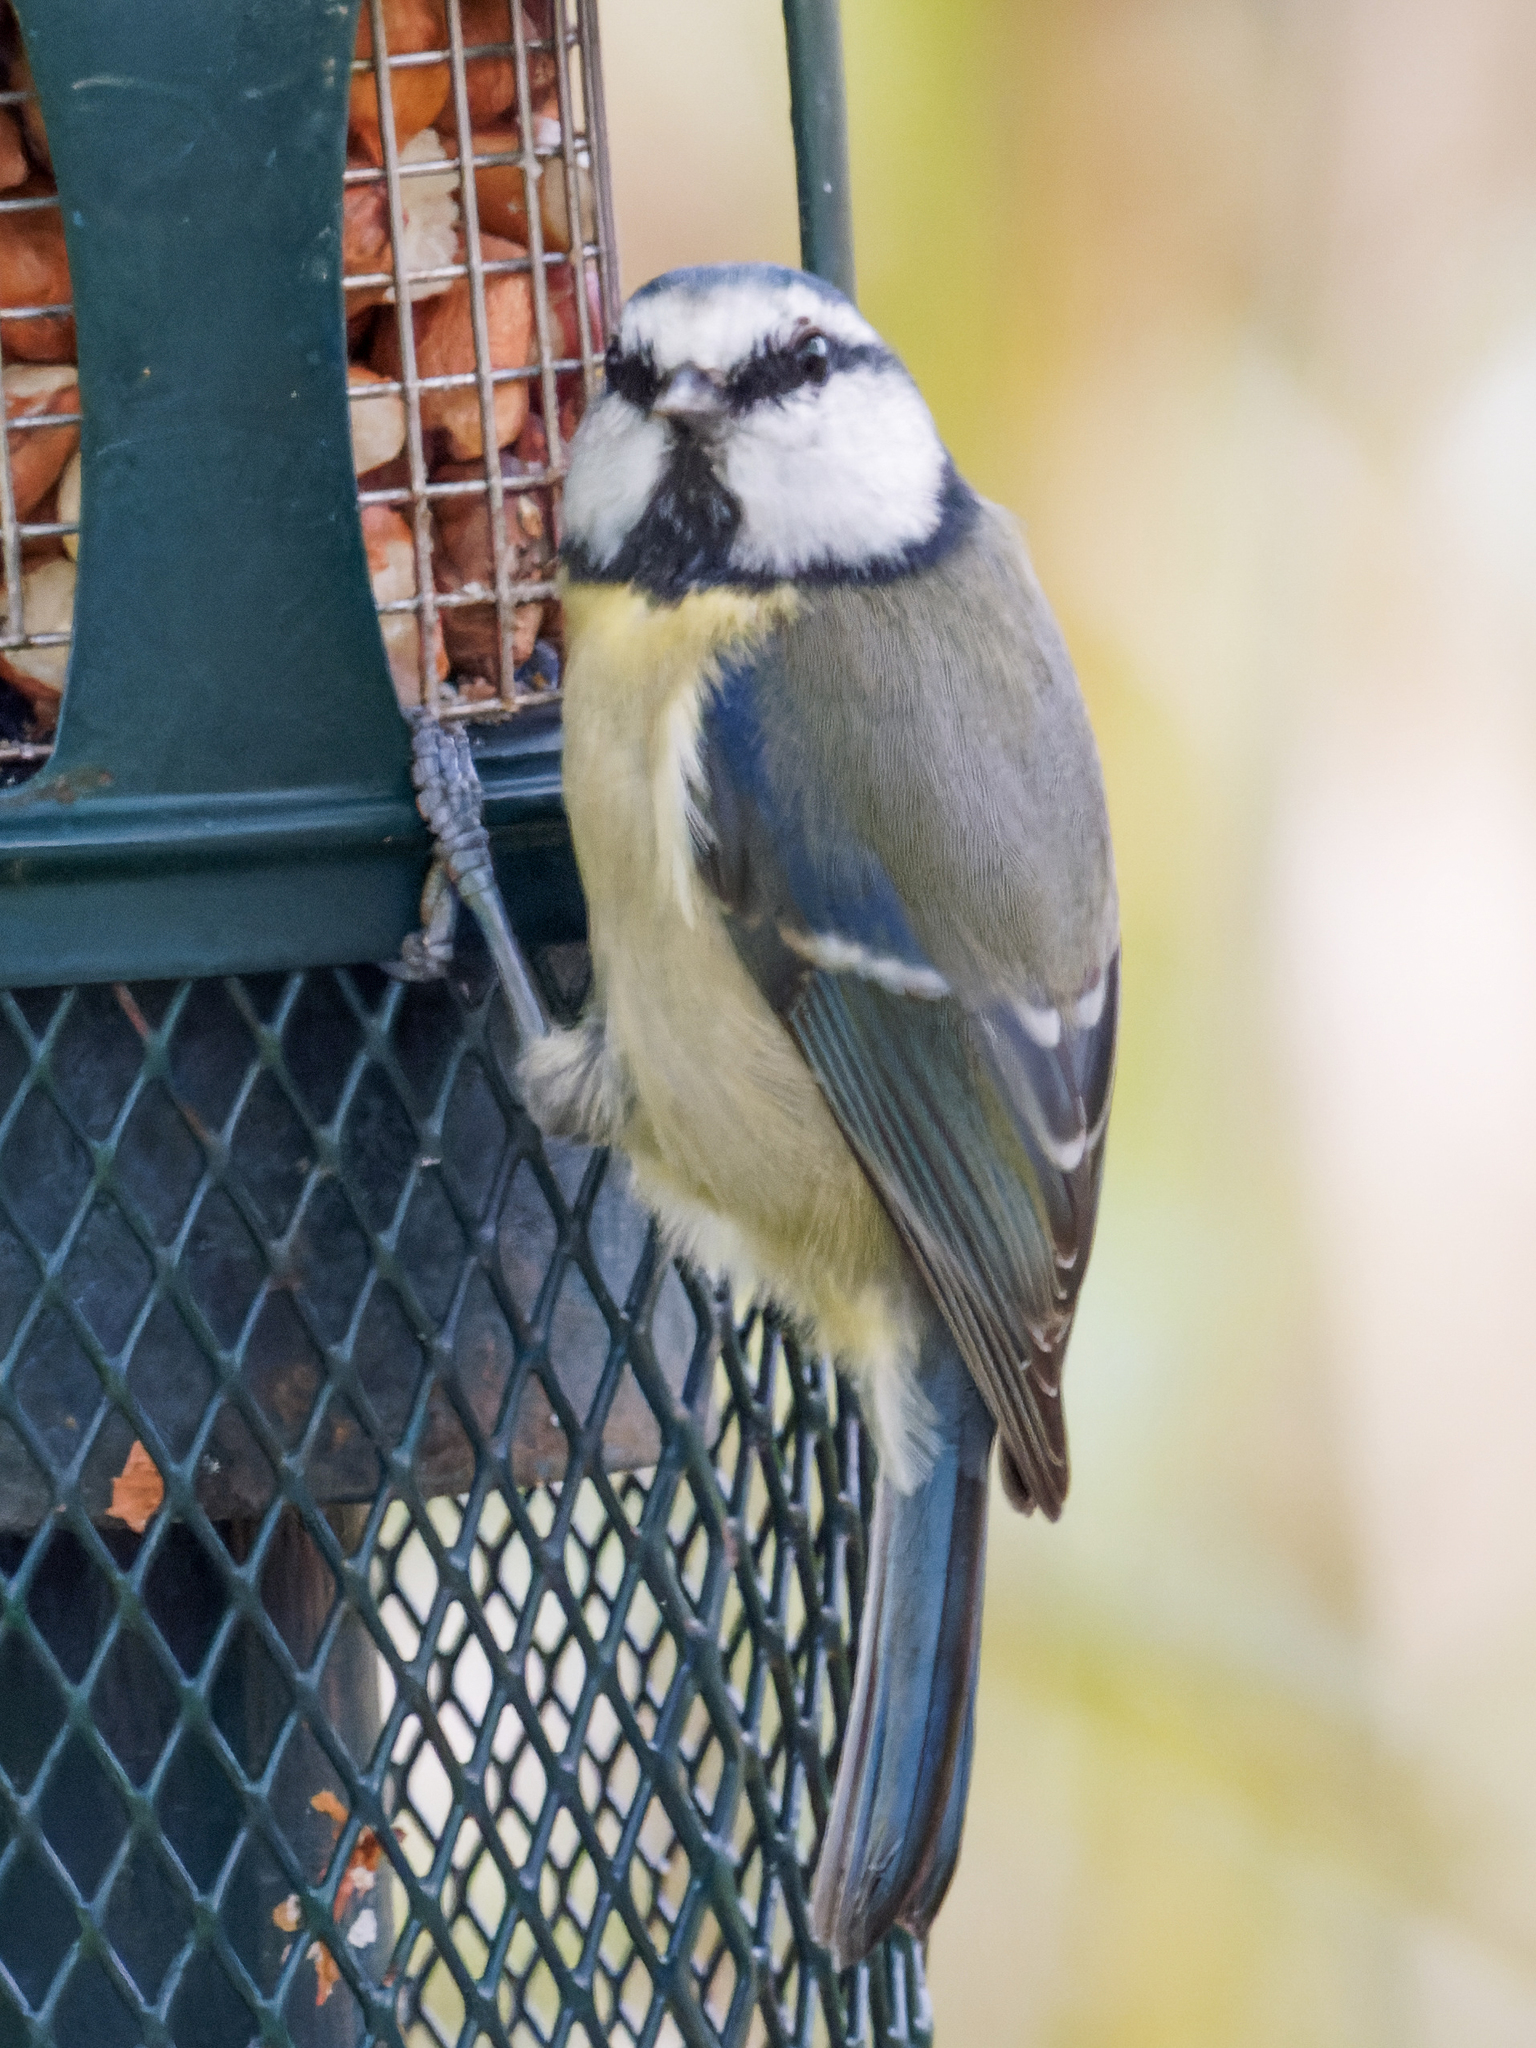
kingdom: Animalia
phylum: Chordata
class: Aves
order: Passeriformes
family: Paridae
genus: Cyanistes
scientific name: Cyanistes caeruleus
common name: Eurasian blue tit
